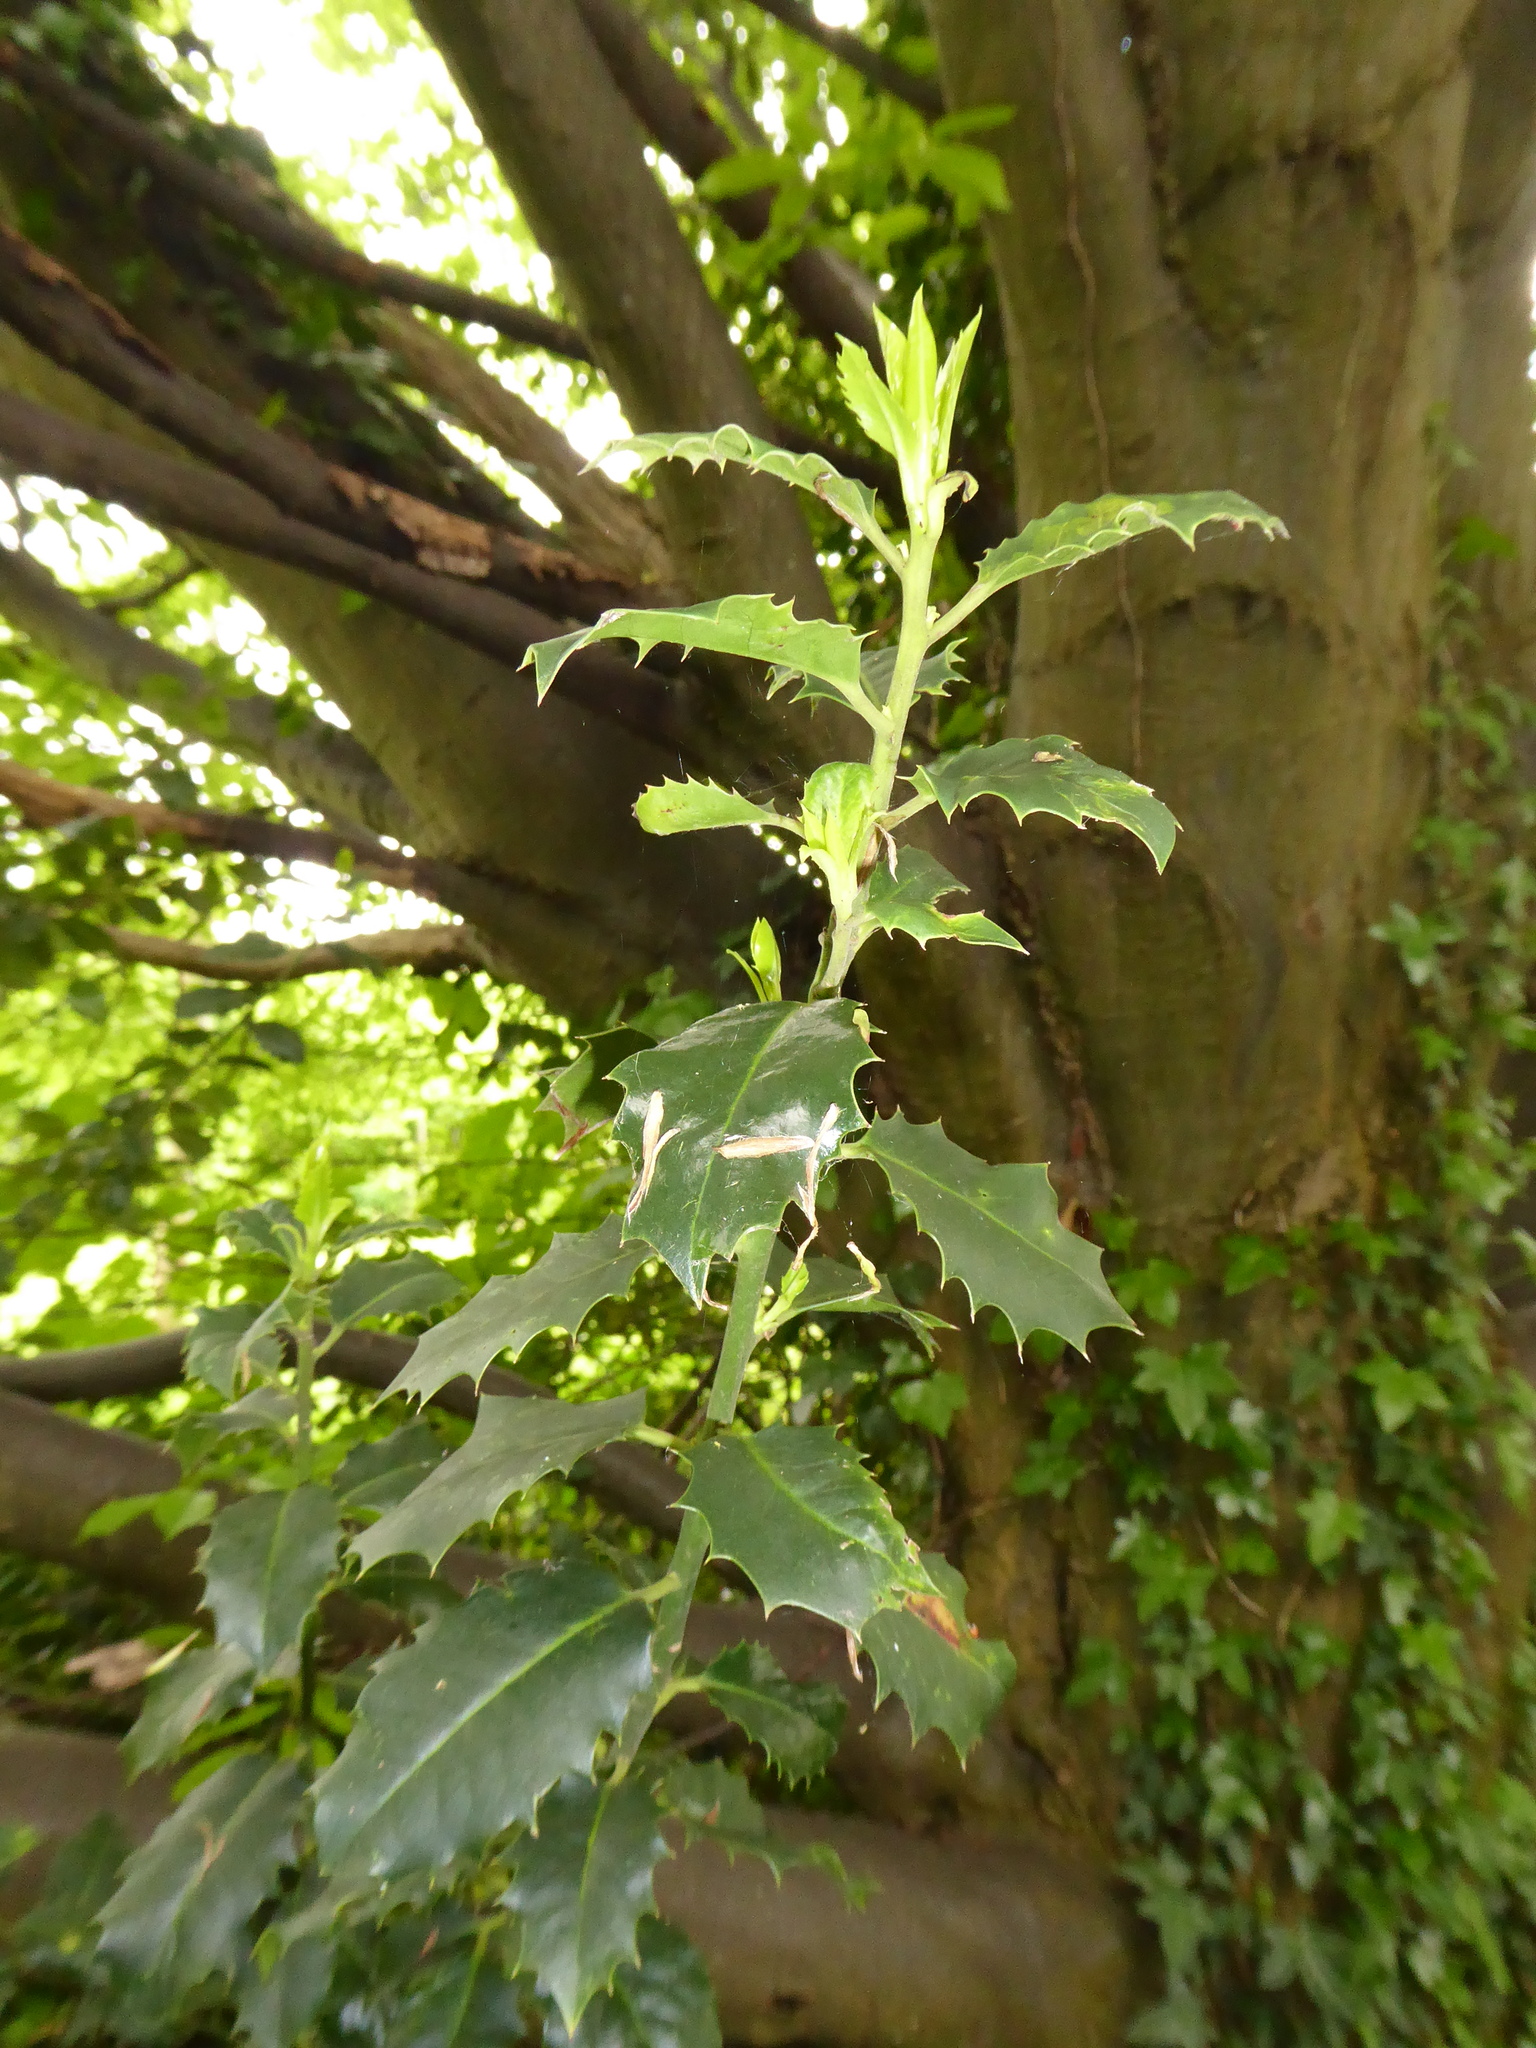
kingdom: Plantae
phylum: Tracheophyta
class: Magnoliopsida
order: Aquifoliales
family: Aquifoliaceae
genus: Ilex
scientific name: Ilex aquifolium
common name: English holly
